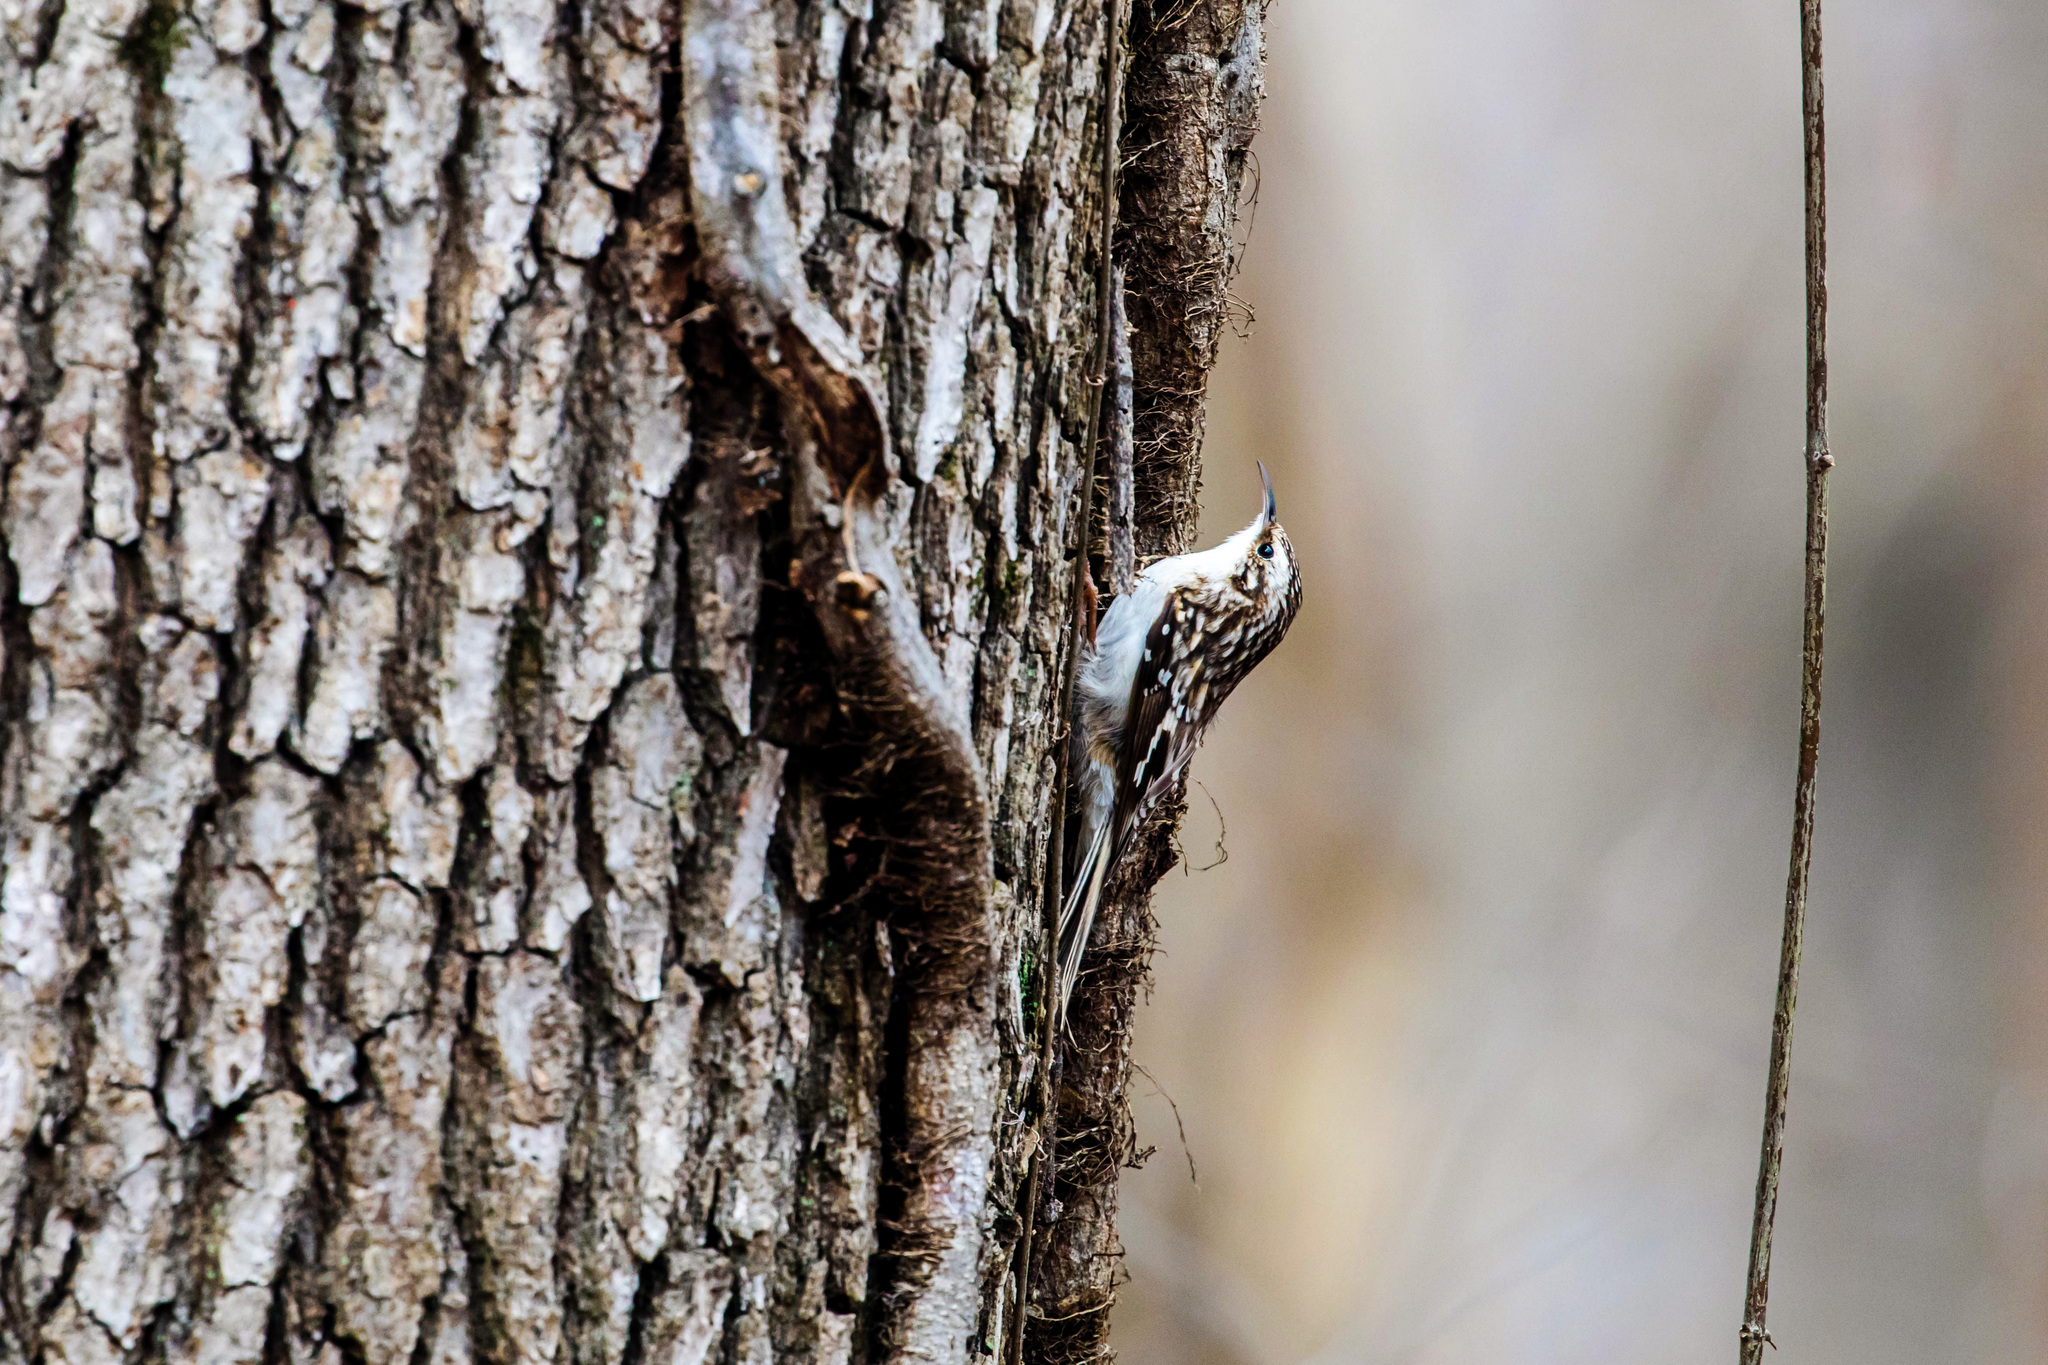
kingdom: Animalia
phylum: Chordata
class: Aves
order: Passeriformes
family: Certhiidae
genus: Certhia
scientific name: Certhia americana
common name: Brown creeper
